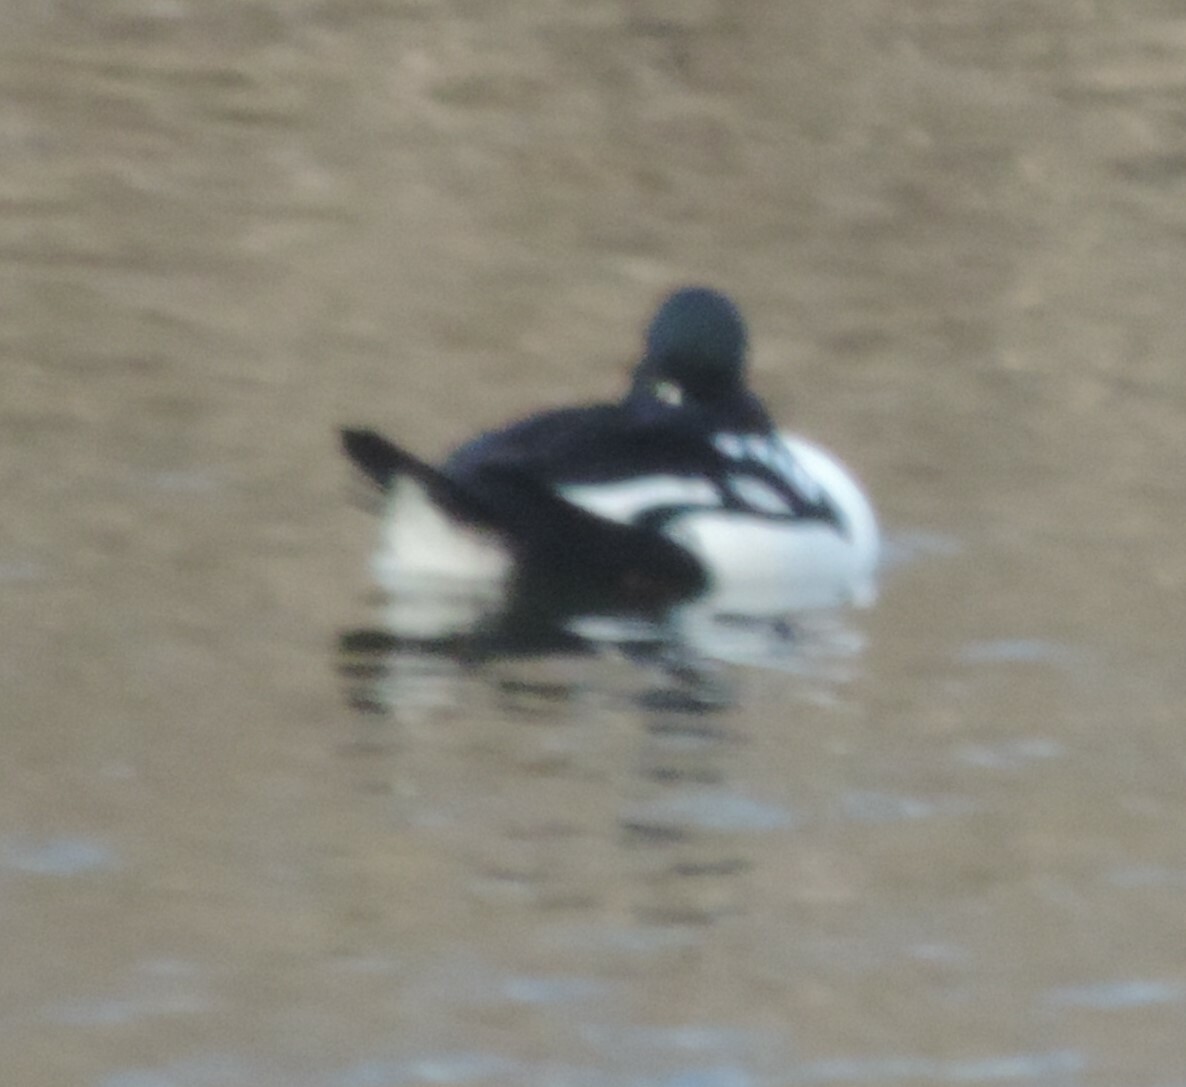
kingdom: Animalia
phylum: Chordata
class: Aves
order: Anseriformes
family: Anatidae
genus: Bucephala
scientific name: Bucephala islandica
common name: Barrow's goldeneye
